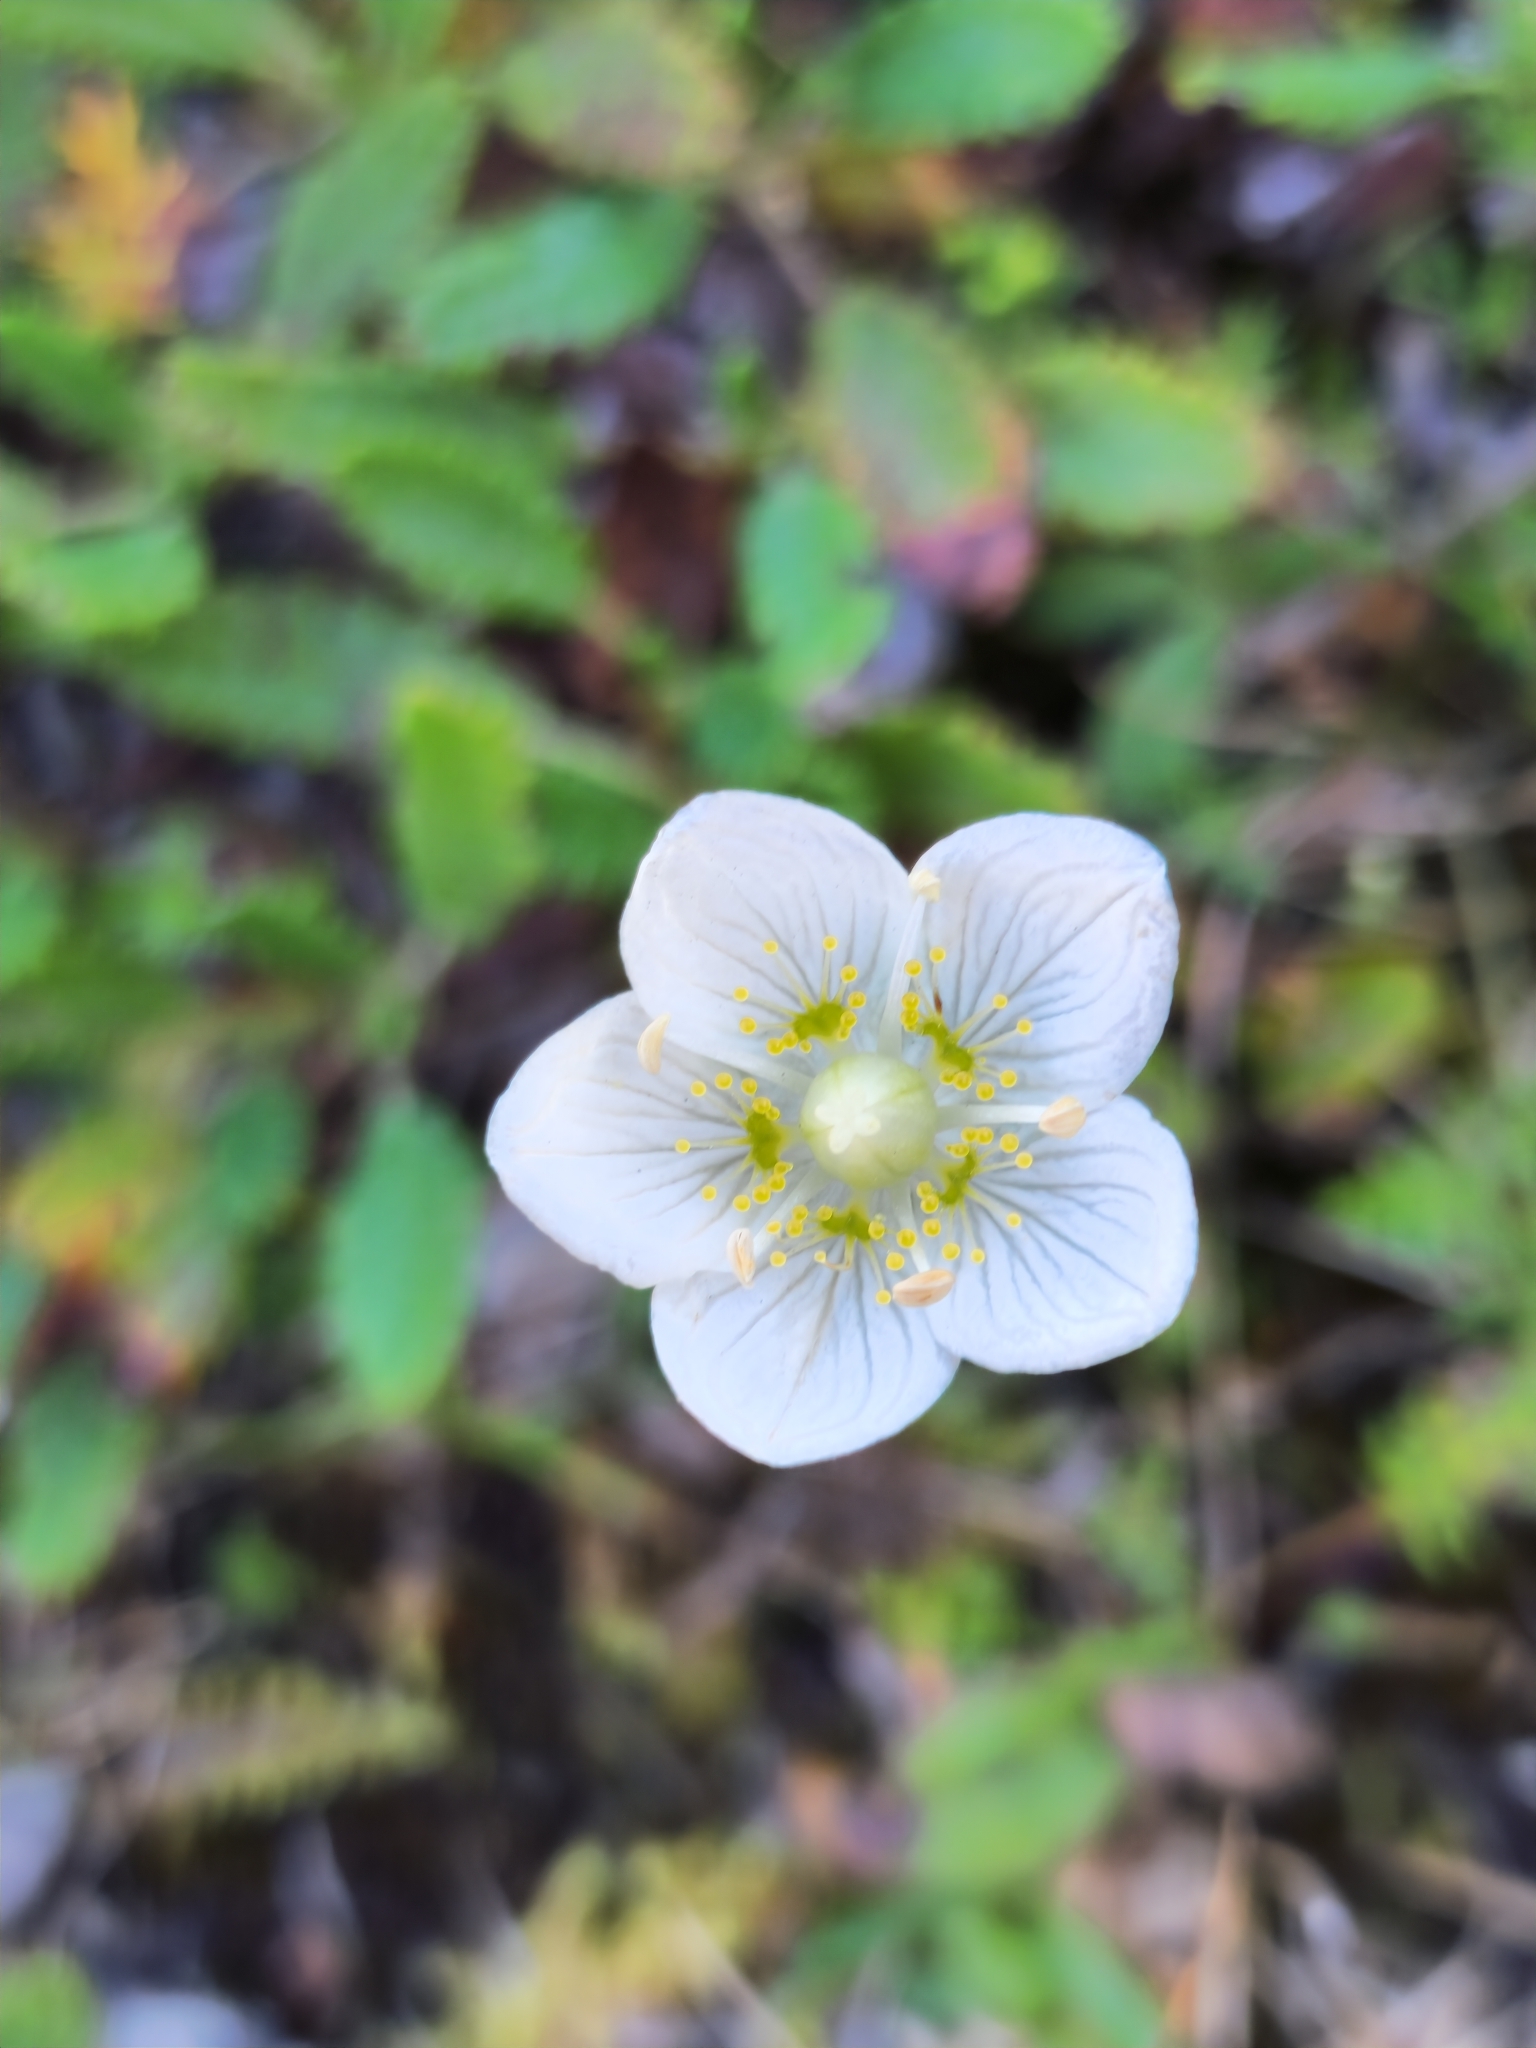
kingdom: Plantae
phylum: Tracheophyta
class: Magnoliopsida
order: Celastrales
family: Parnassiaceae
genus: Parnassia
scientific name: Parnassia palustris
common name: Grass-of-parnassus
